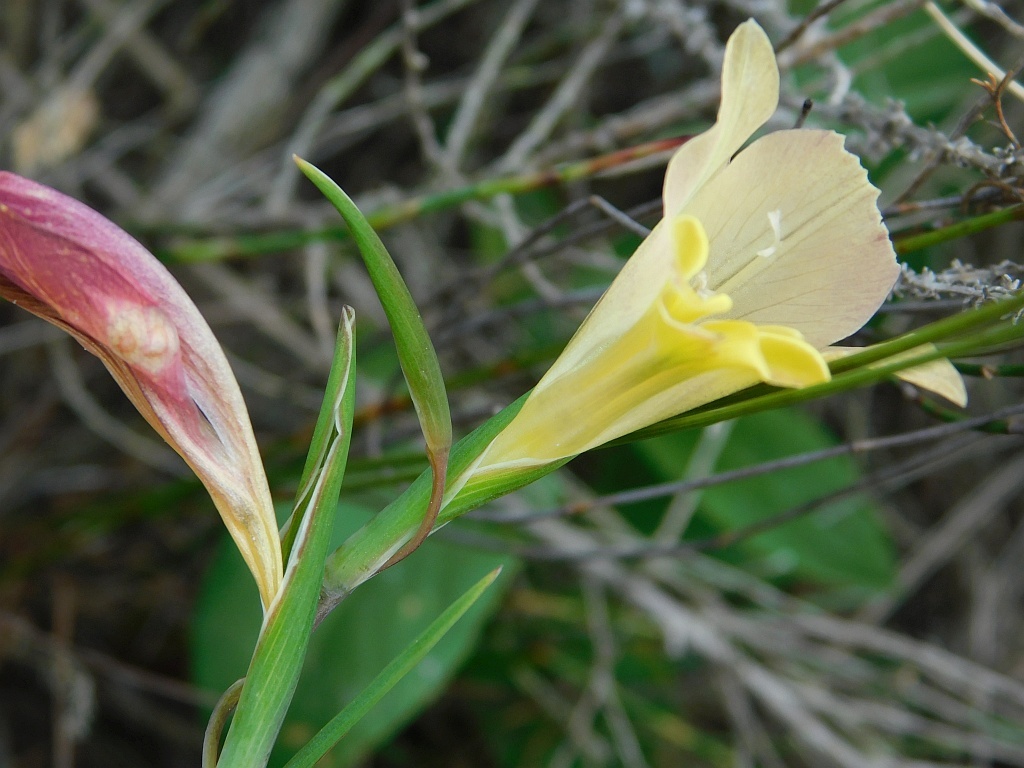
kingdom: Plantae
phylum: Tracheophyta
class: Liliopsida
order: Asparagales
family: Iridaceae
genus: Gladiolus
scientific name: Gladiolus carinatus
